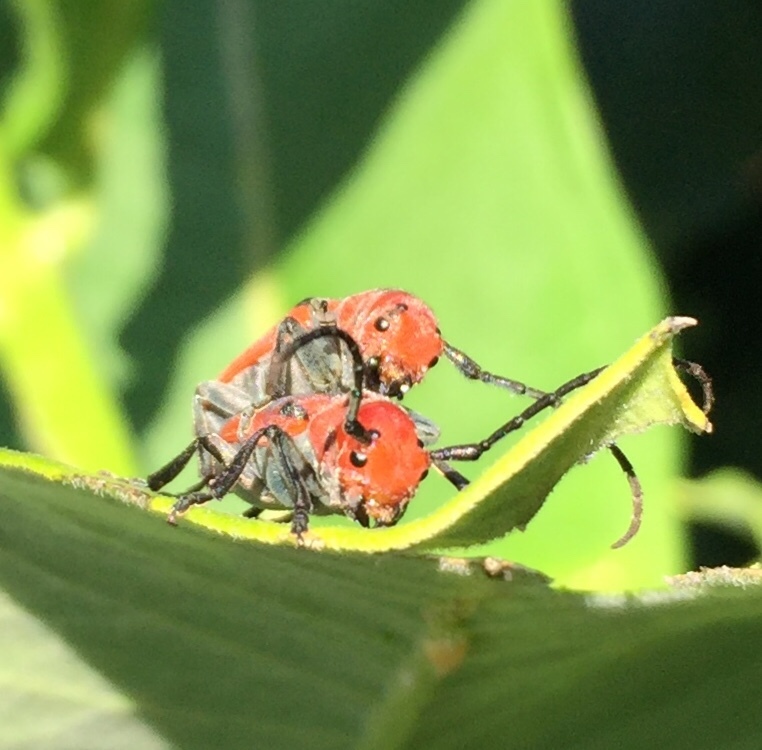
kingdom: Animalia
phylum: Arthropoda
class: Insecta
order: Coleoptera
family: Cerambycidae
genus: Tetraopes
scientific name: Tetraopes tetrophthalmus
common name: Red milkweed beetle
